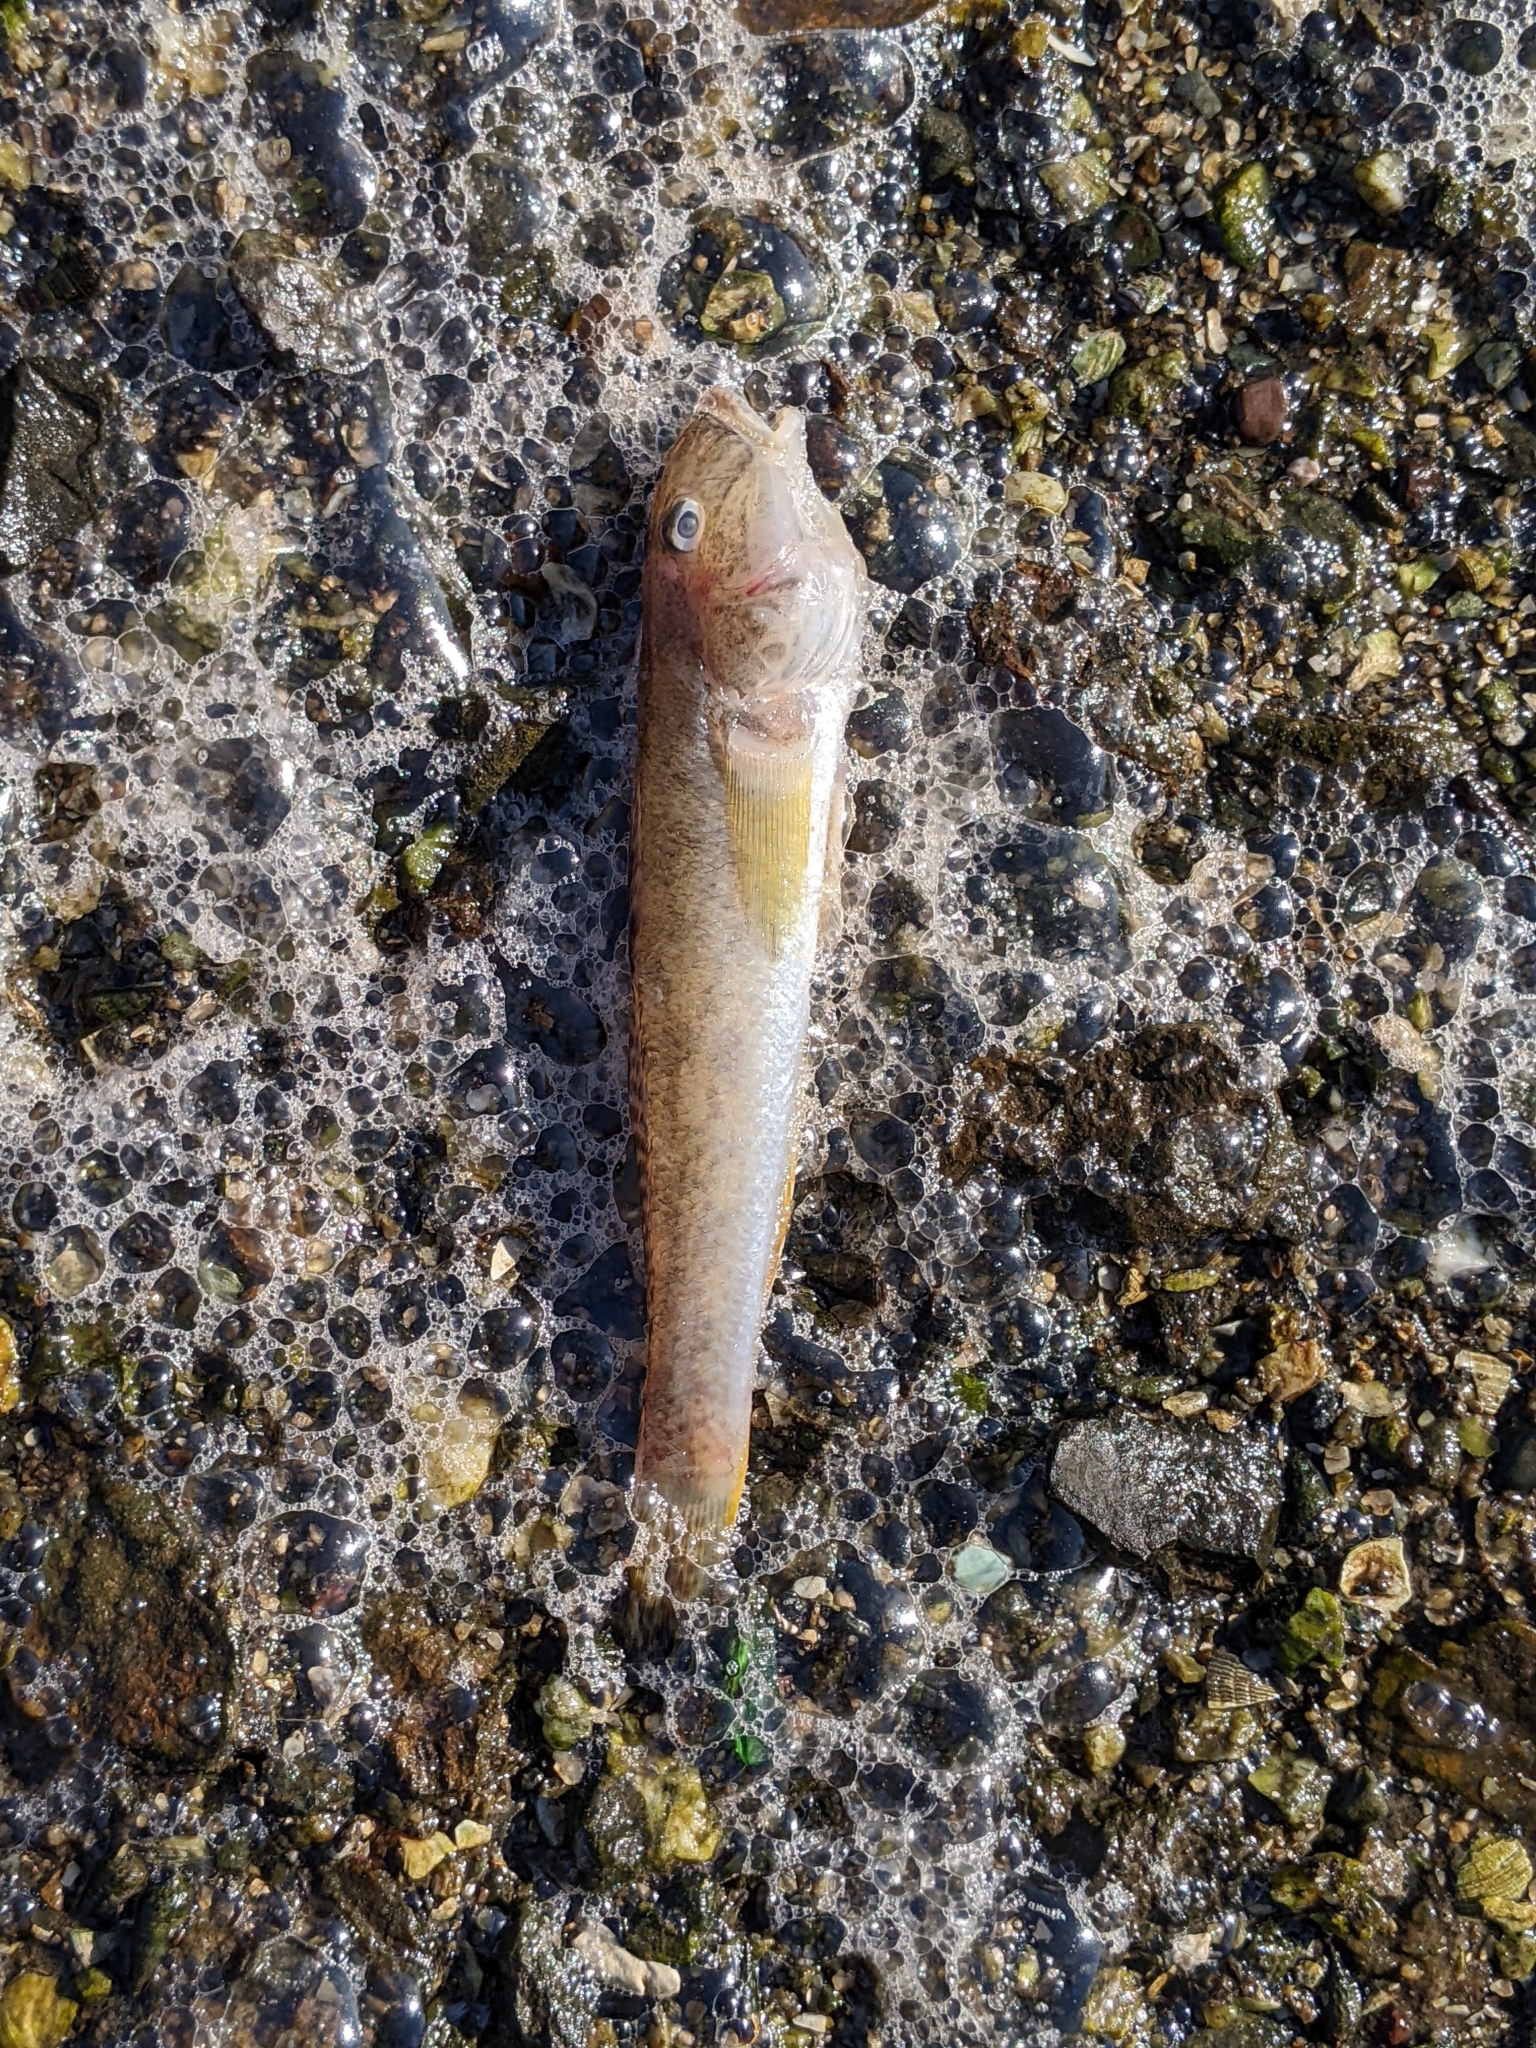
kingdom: Animalia
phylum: Chordata
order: Perciformes
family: Gobiidae
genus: Acanthogobius
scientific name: Acanthogobius flavimanus
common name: Yellowfin goby
